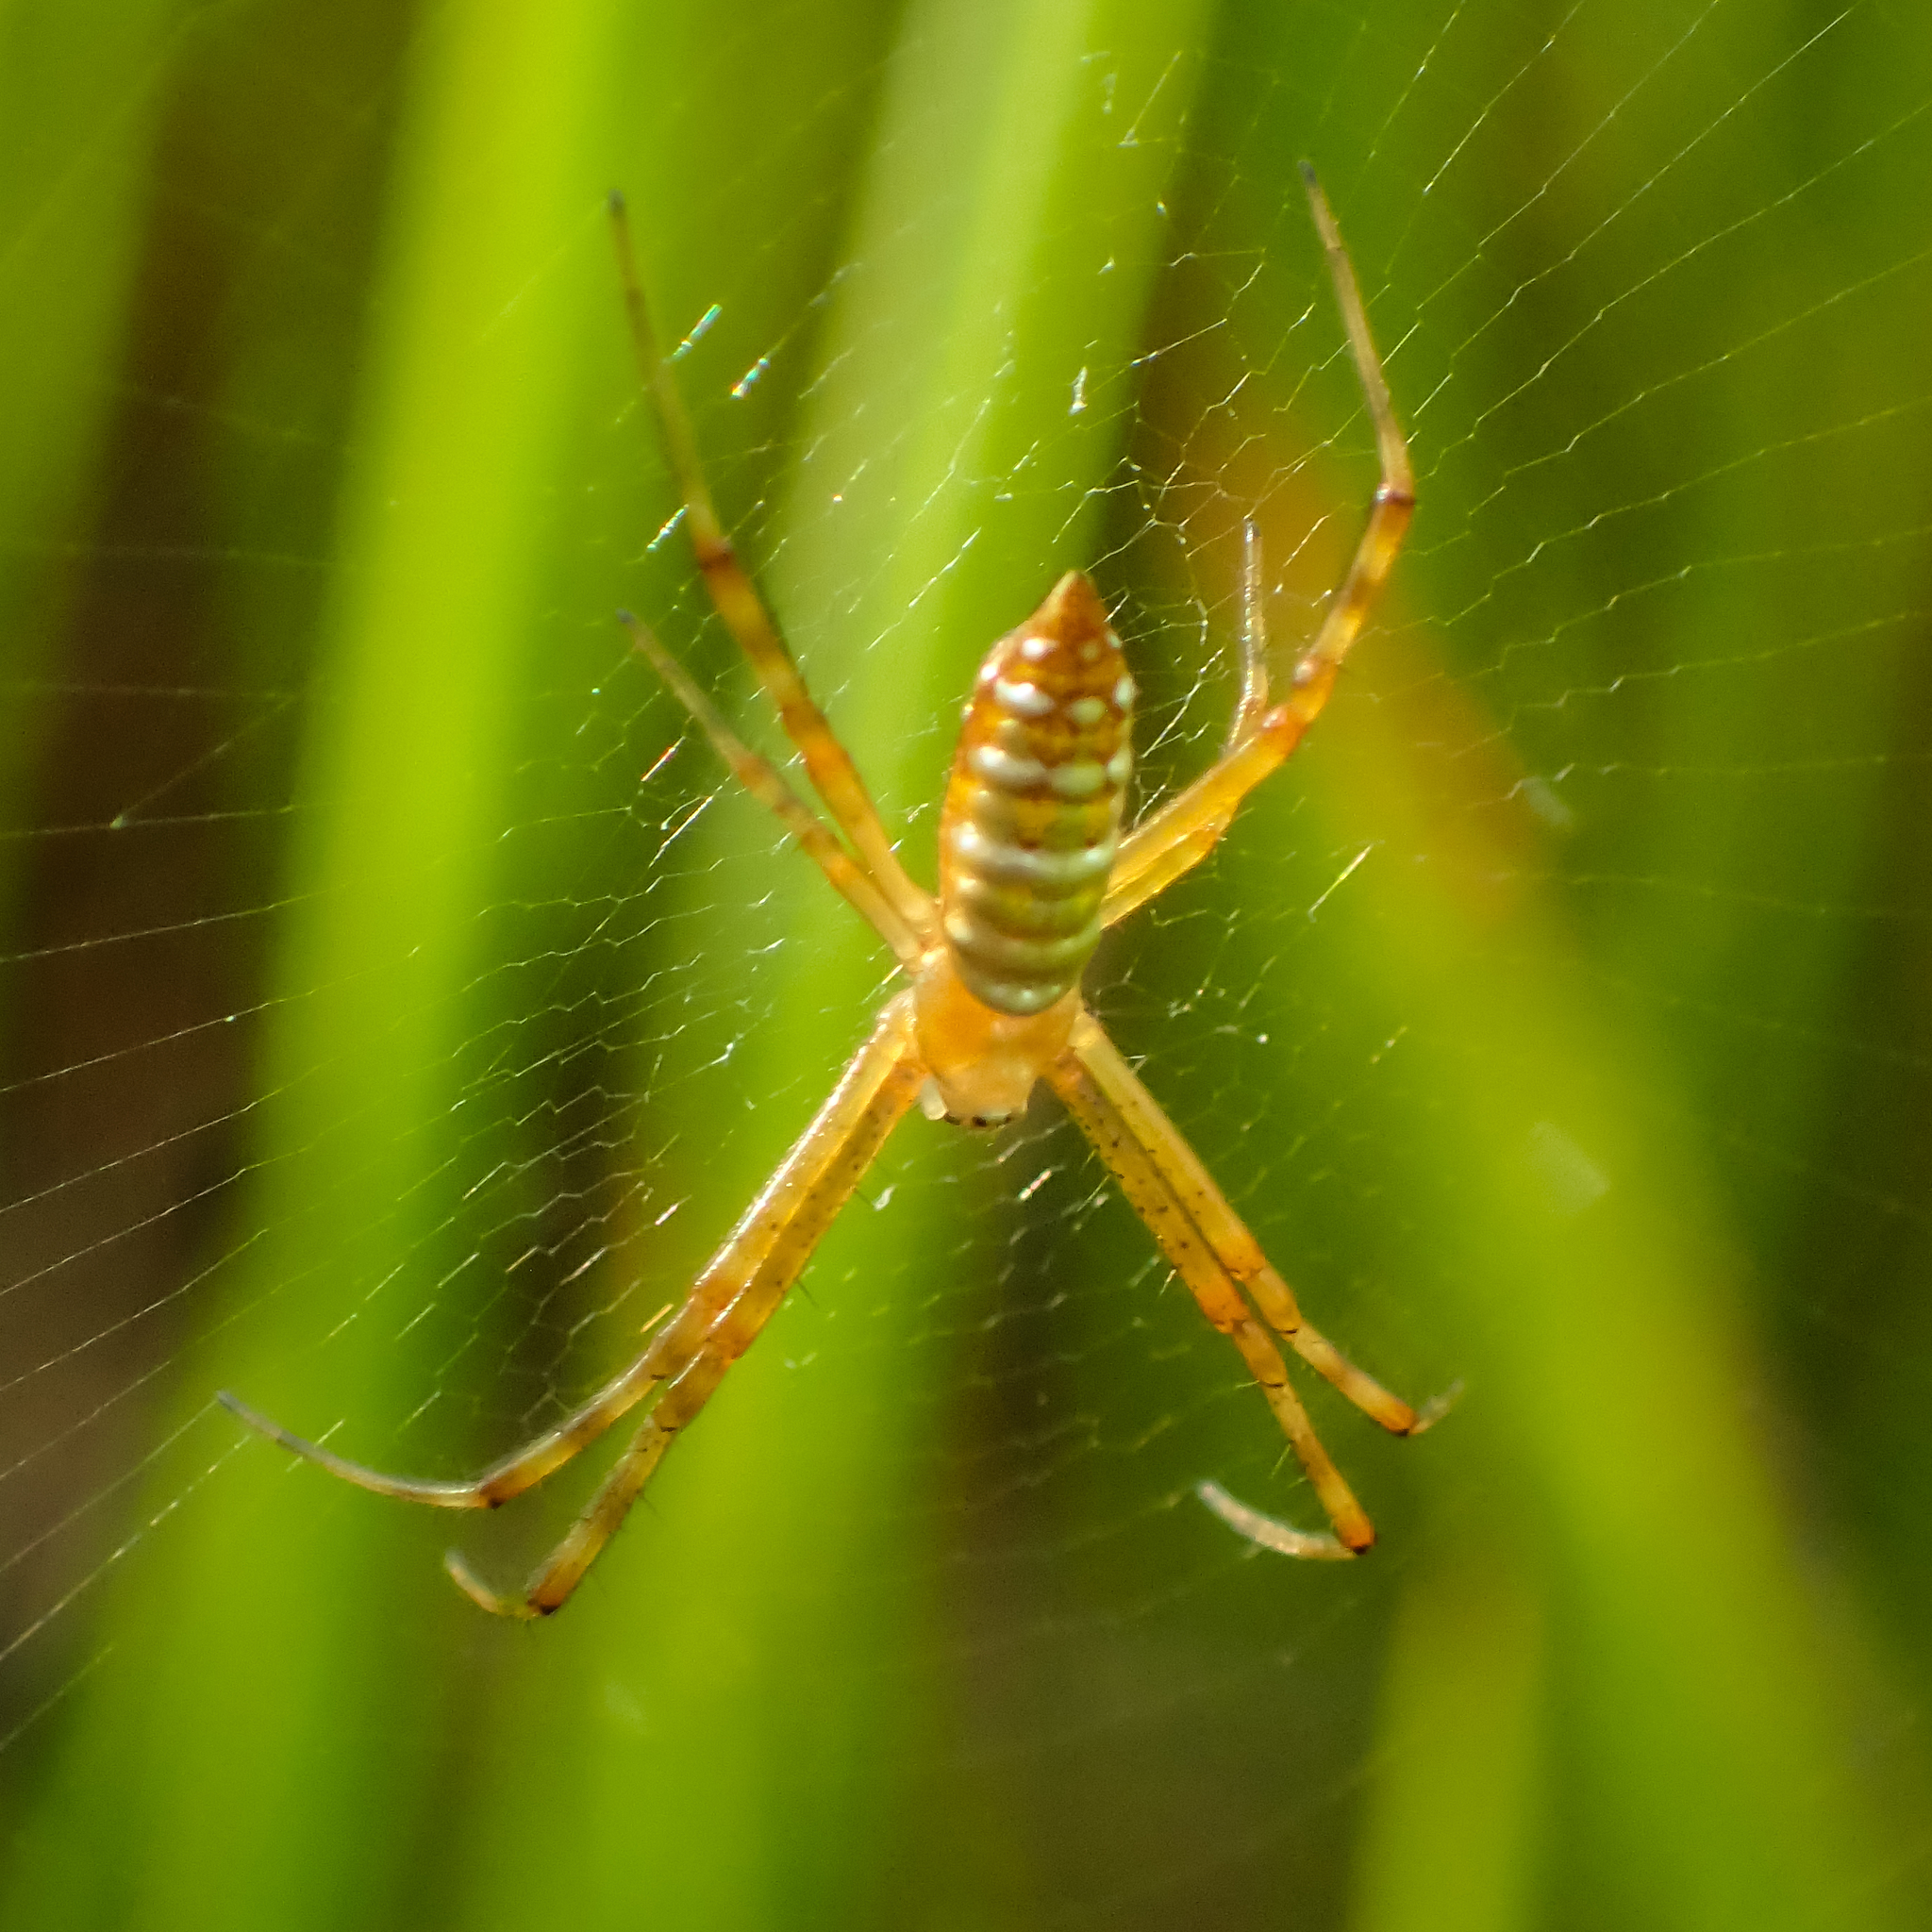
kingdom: Animalia
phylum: Arthropoda
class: Arachnida
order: Araneae
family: Araneidae
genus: Argiope
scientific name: Argiope trifasciata
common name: Banded garden spider
